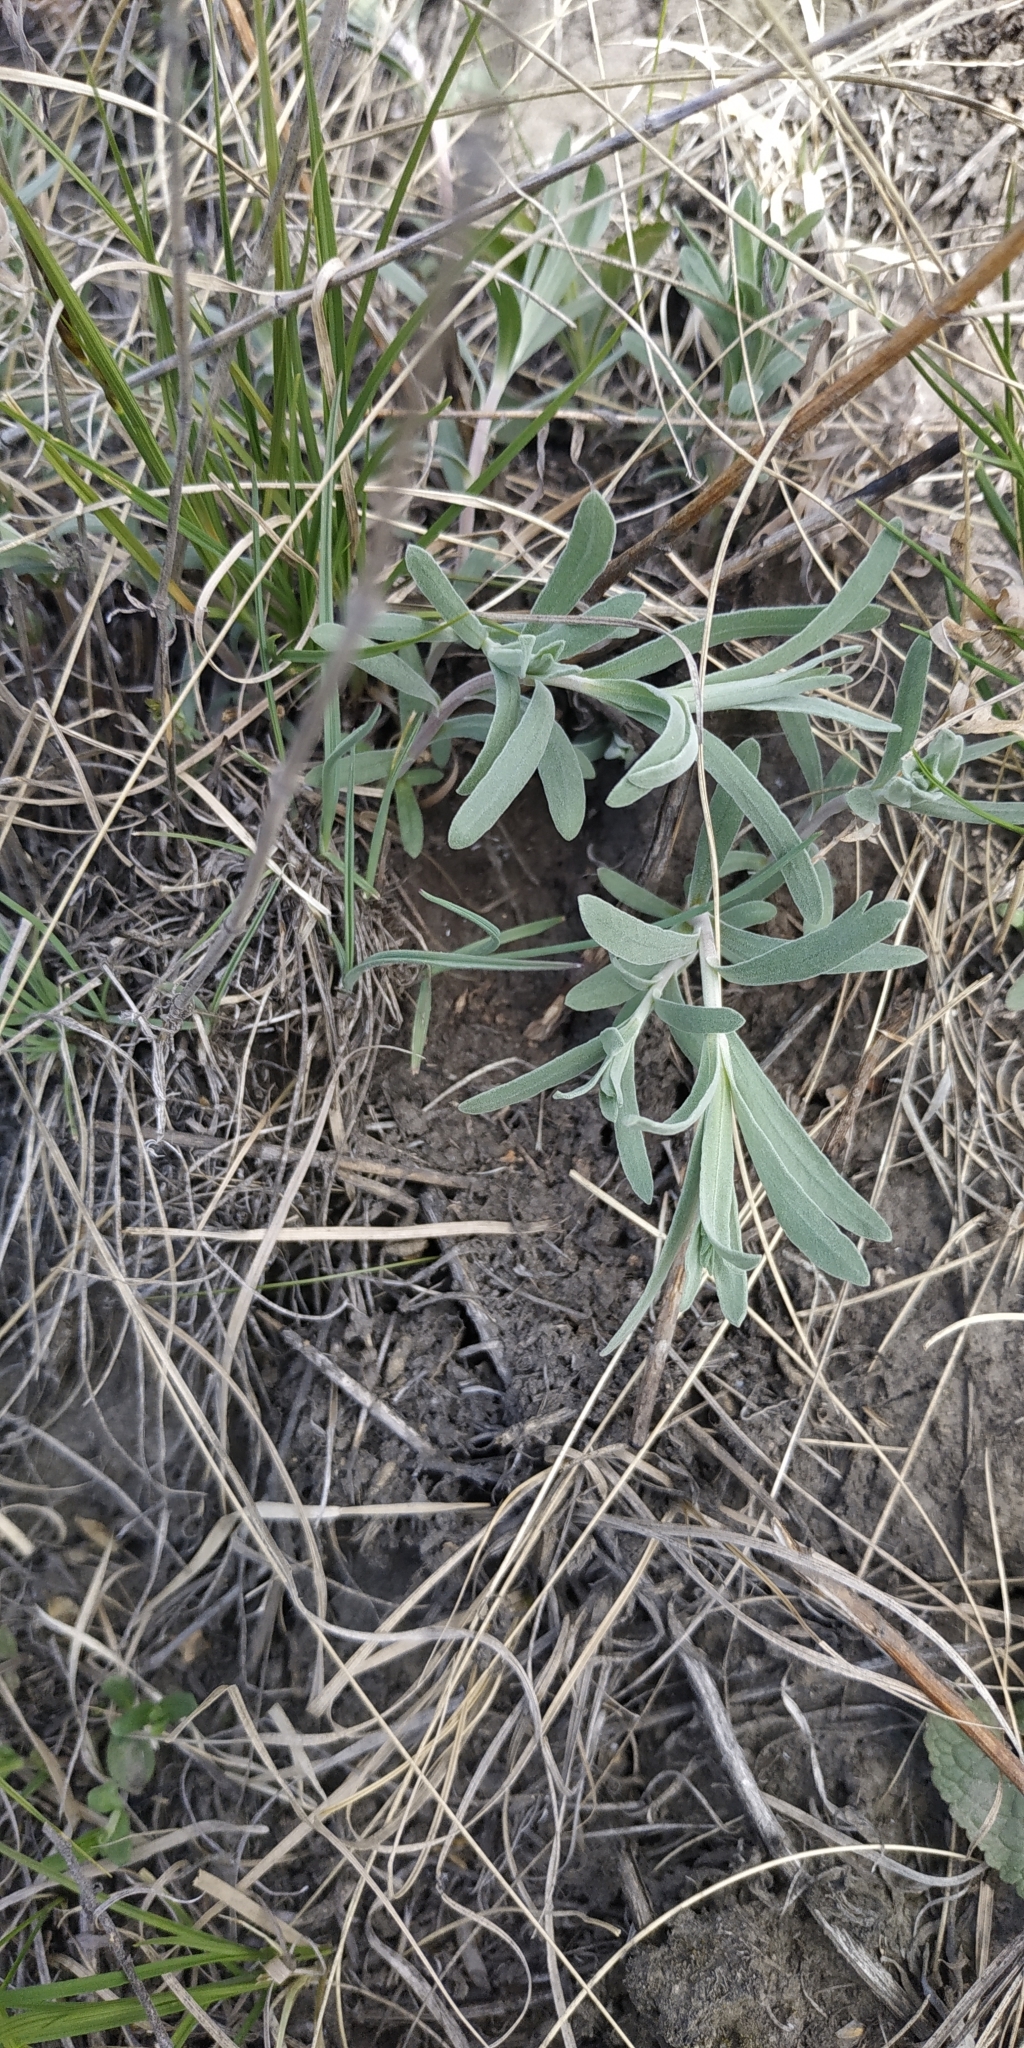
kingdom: Plantae
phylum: Tracheophyta
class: Magnoliopsida
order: Asterales
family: Asteraceae
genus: Artemisia
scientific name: Artemisia glauca
